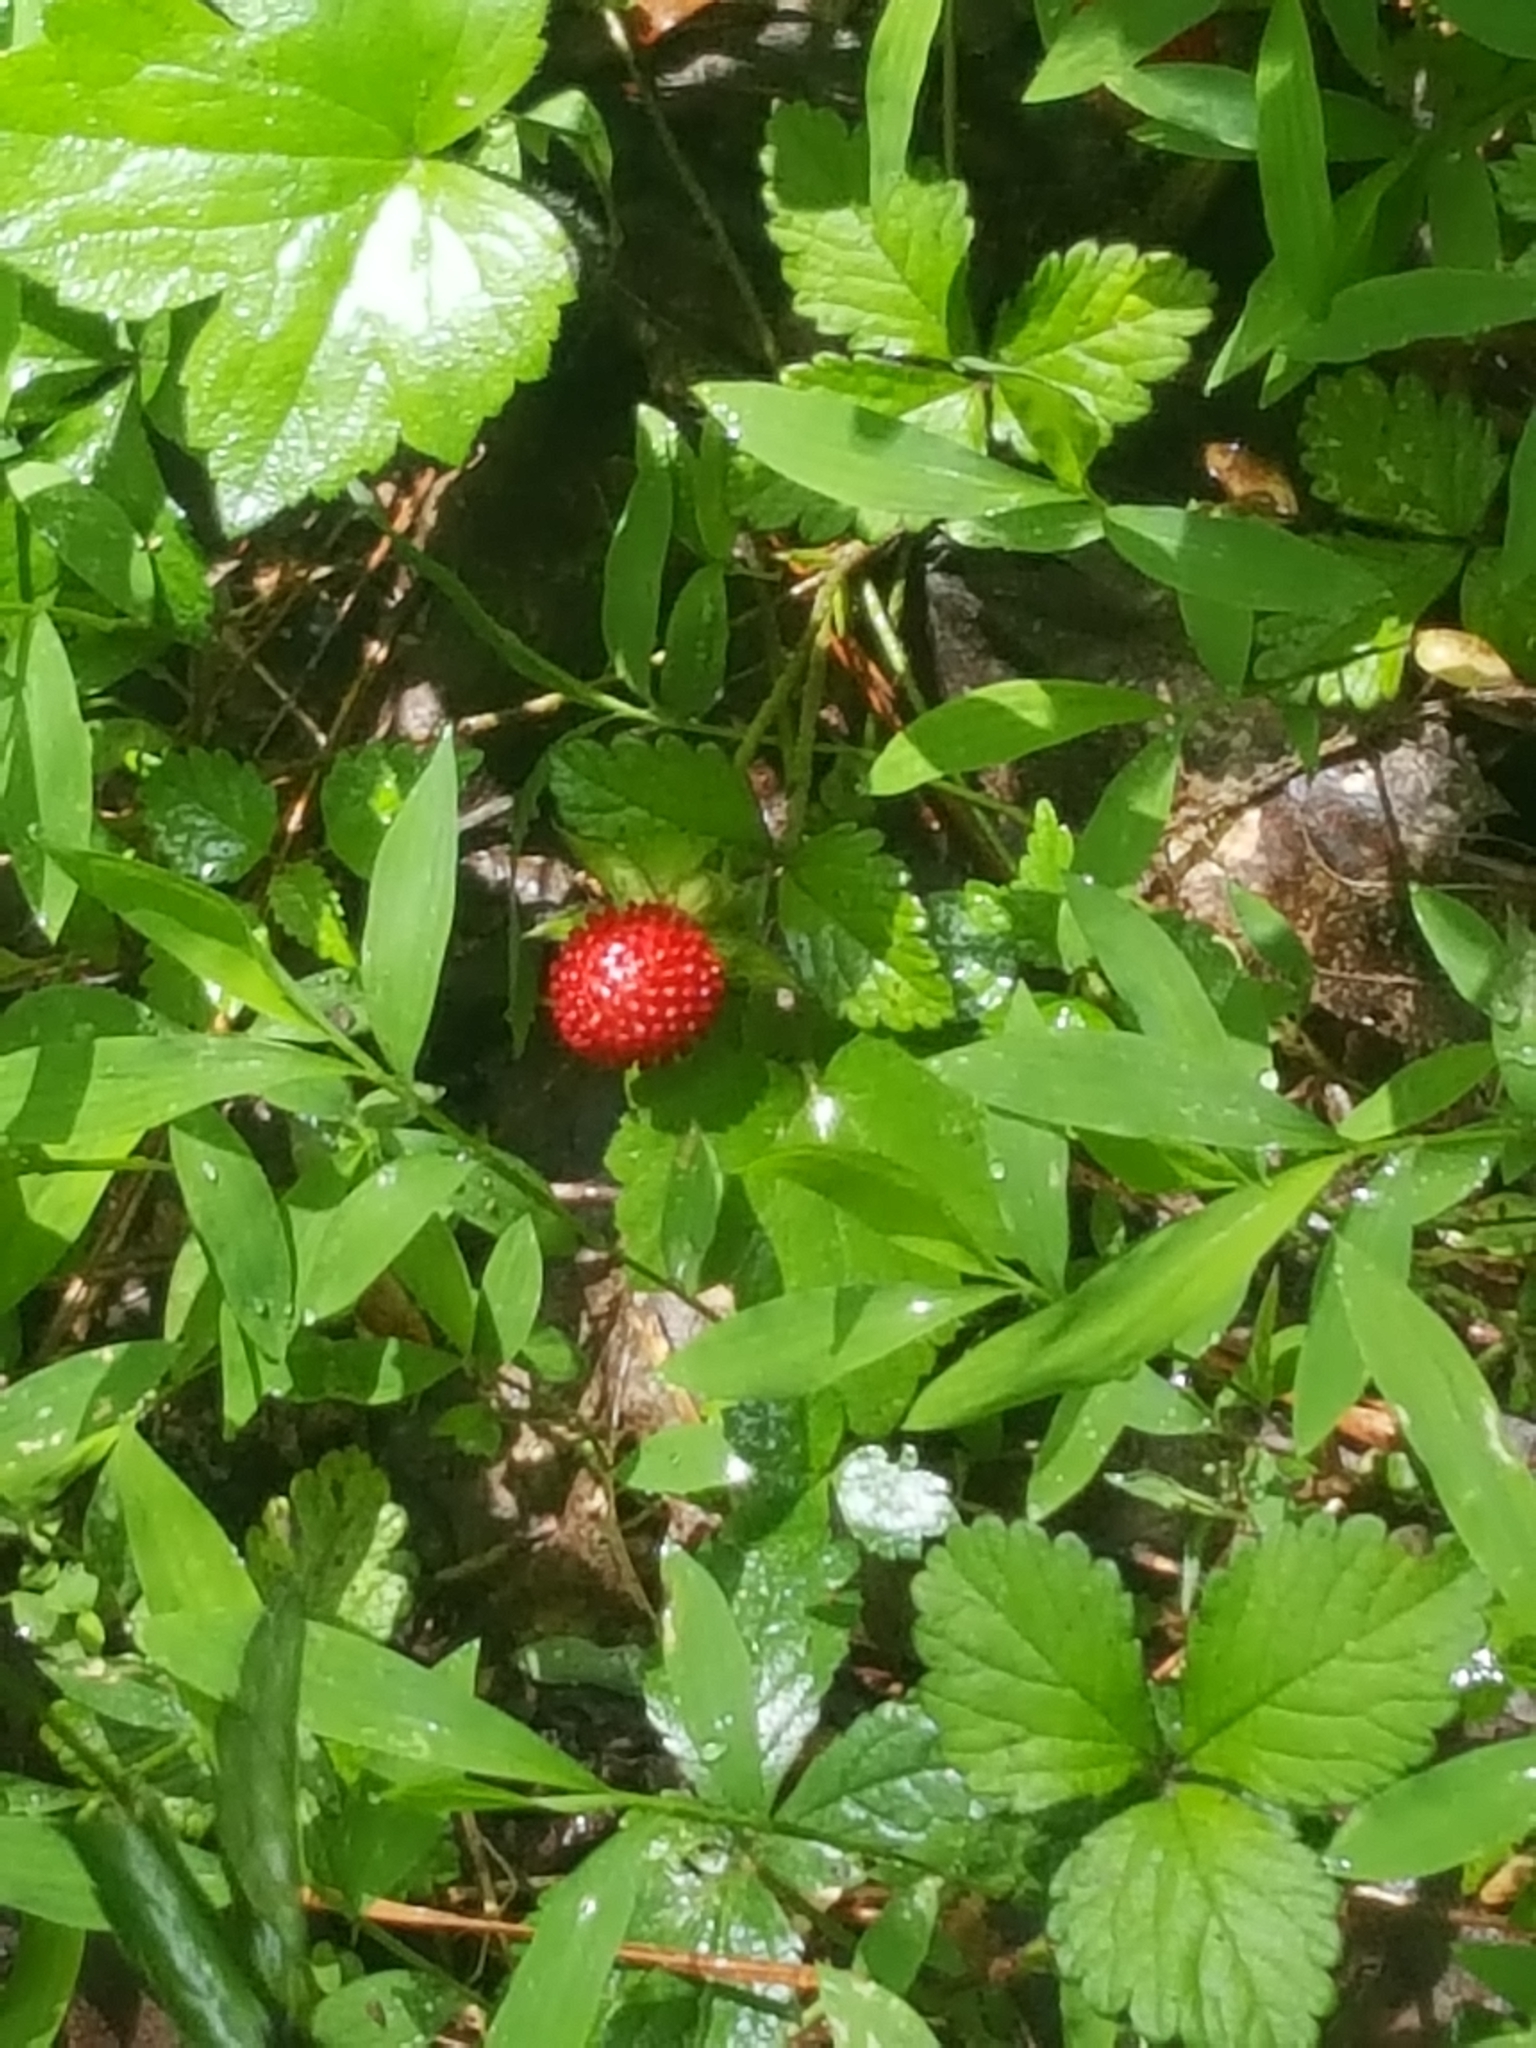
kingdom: Plantae
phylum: Tracheophyta
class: Magnoliopsida
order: Rosales
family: Rosaceae
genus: Potentilla
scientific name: Potentilla indica
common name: Yellow-flowered strawberry
